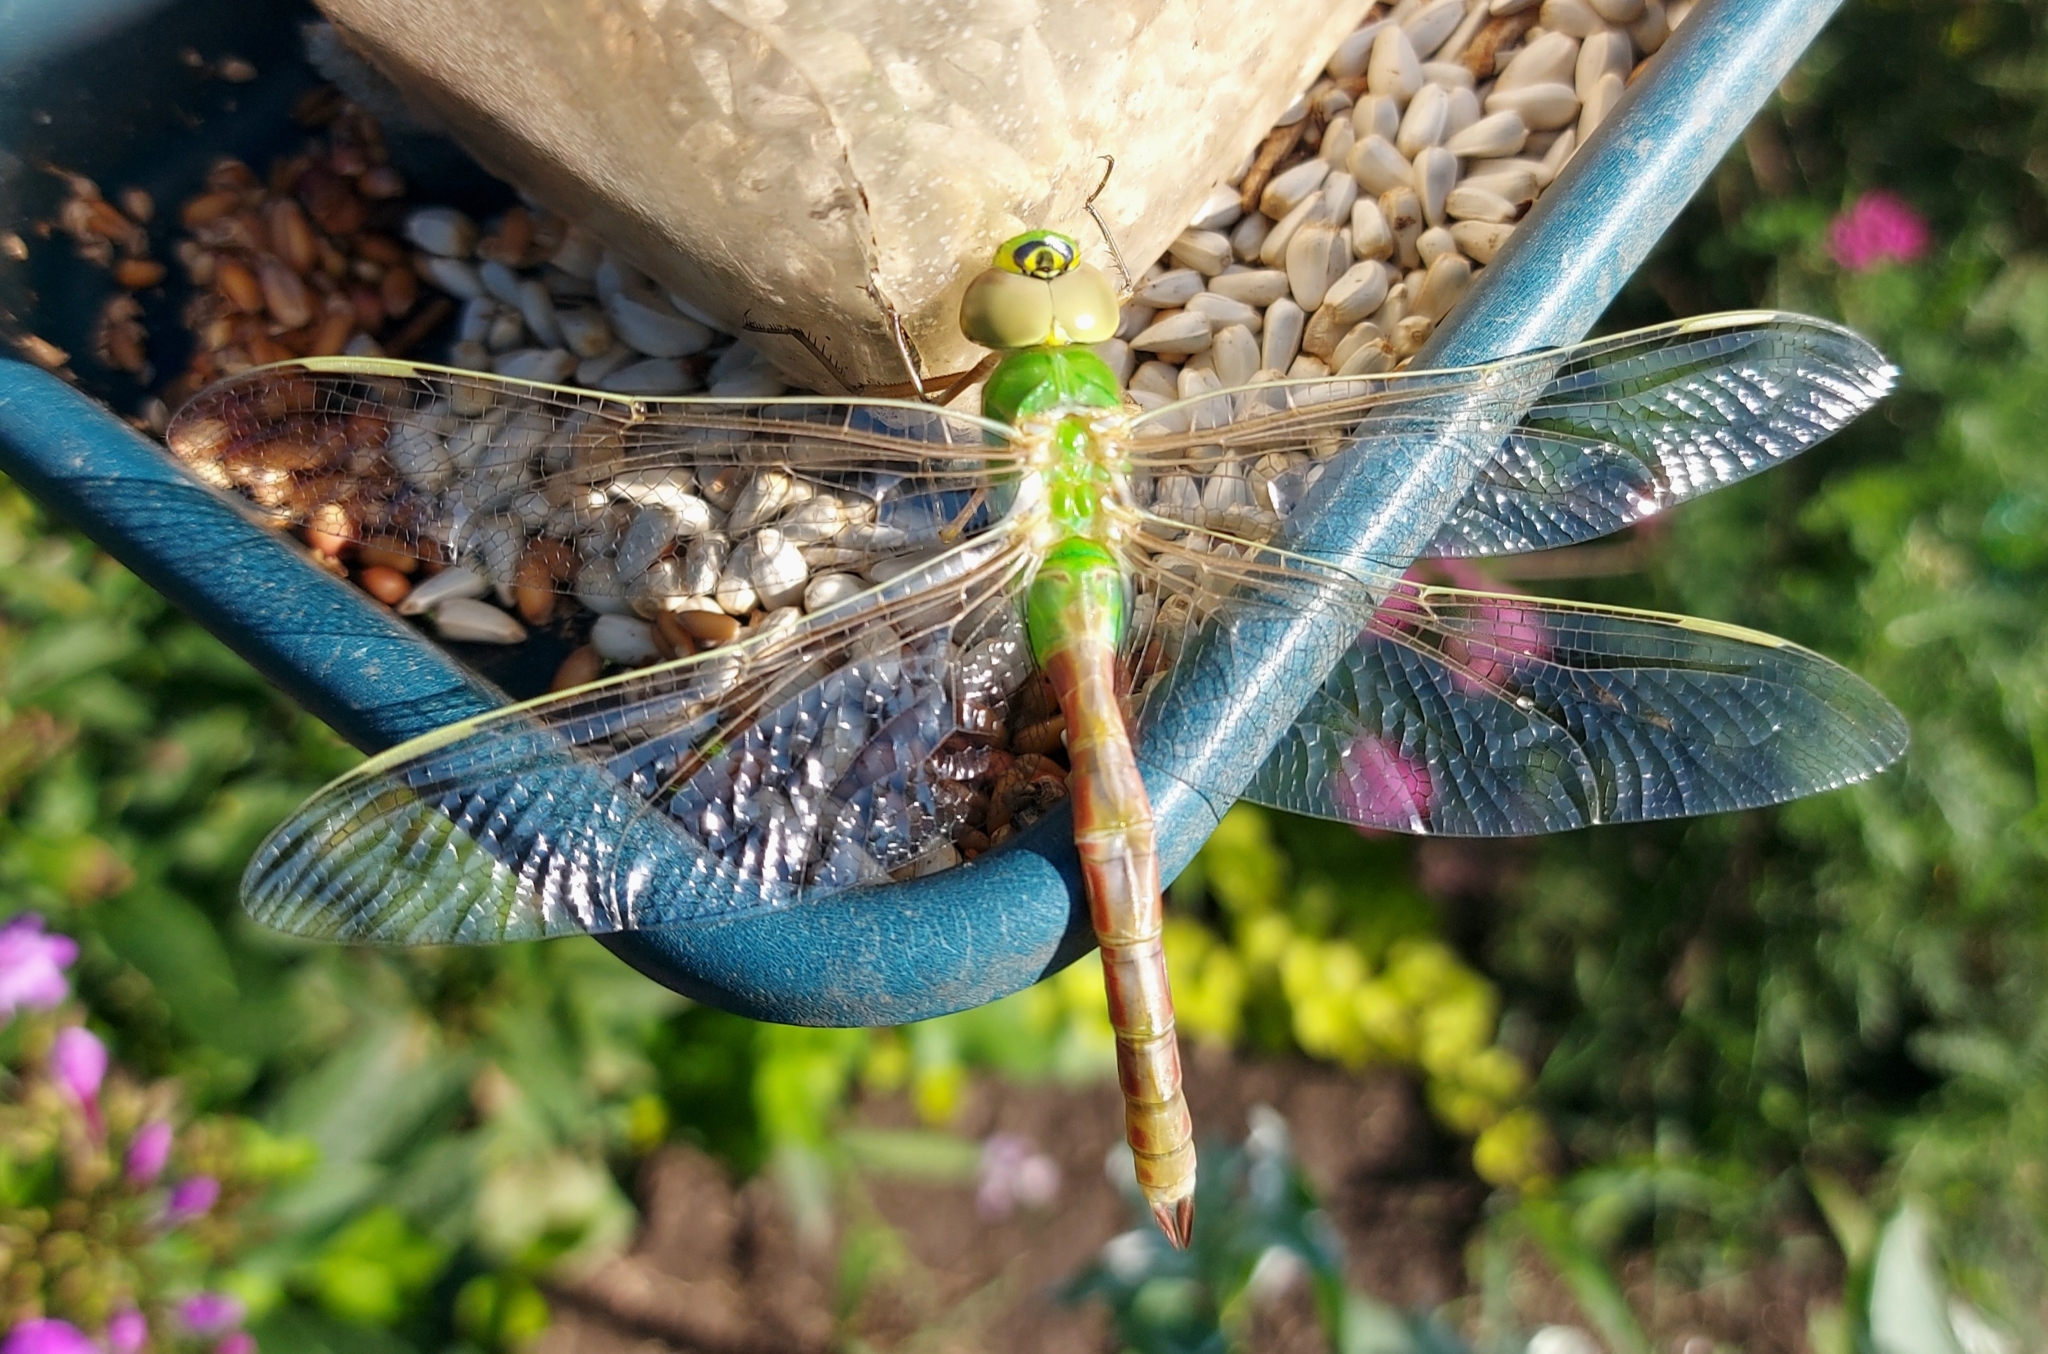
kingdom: Animalia
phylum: Arthropoda
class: Insecta
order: Odonata
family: Aeshnidae
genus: Anax
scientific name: Anax junius
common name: Common green darner
